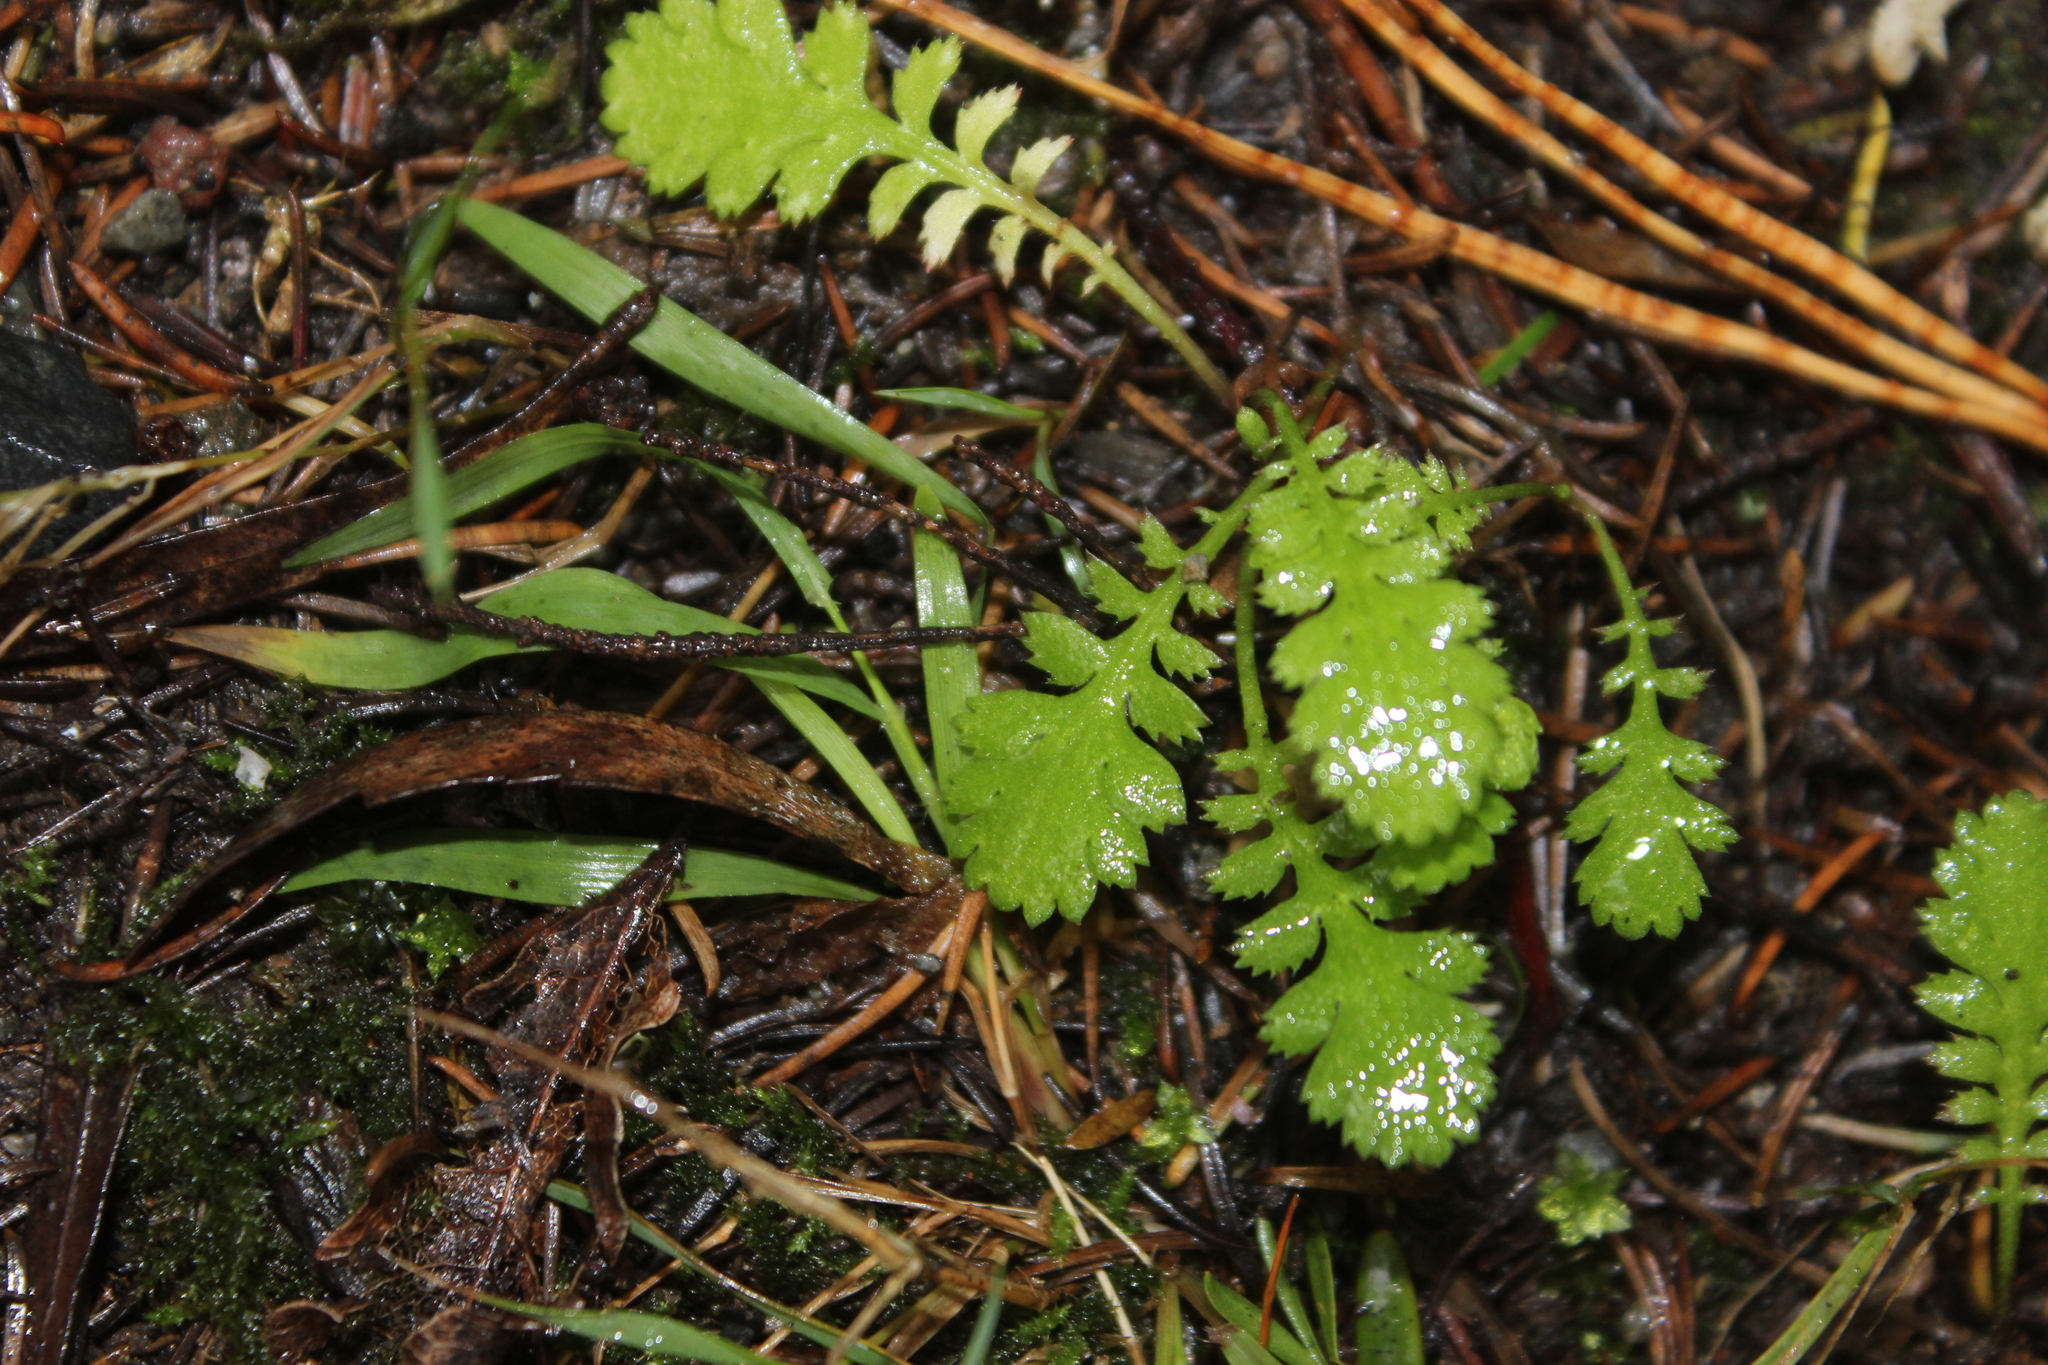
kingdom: Plantae
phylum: Tracheophyta
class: Magnoliopsida
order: Asterales
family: Asteraceae
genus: Leptinella
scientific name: Leptinella squalida
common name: New zealand brass-buttons
